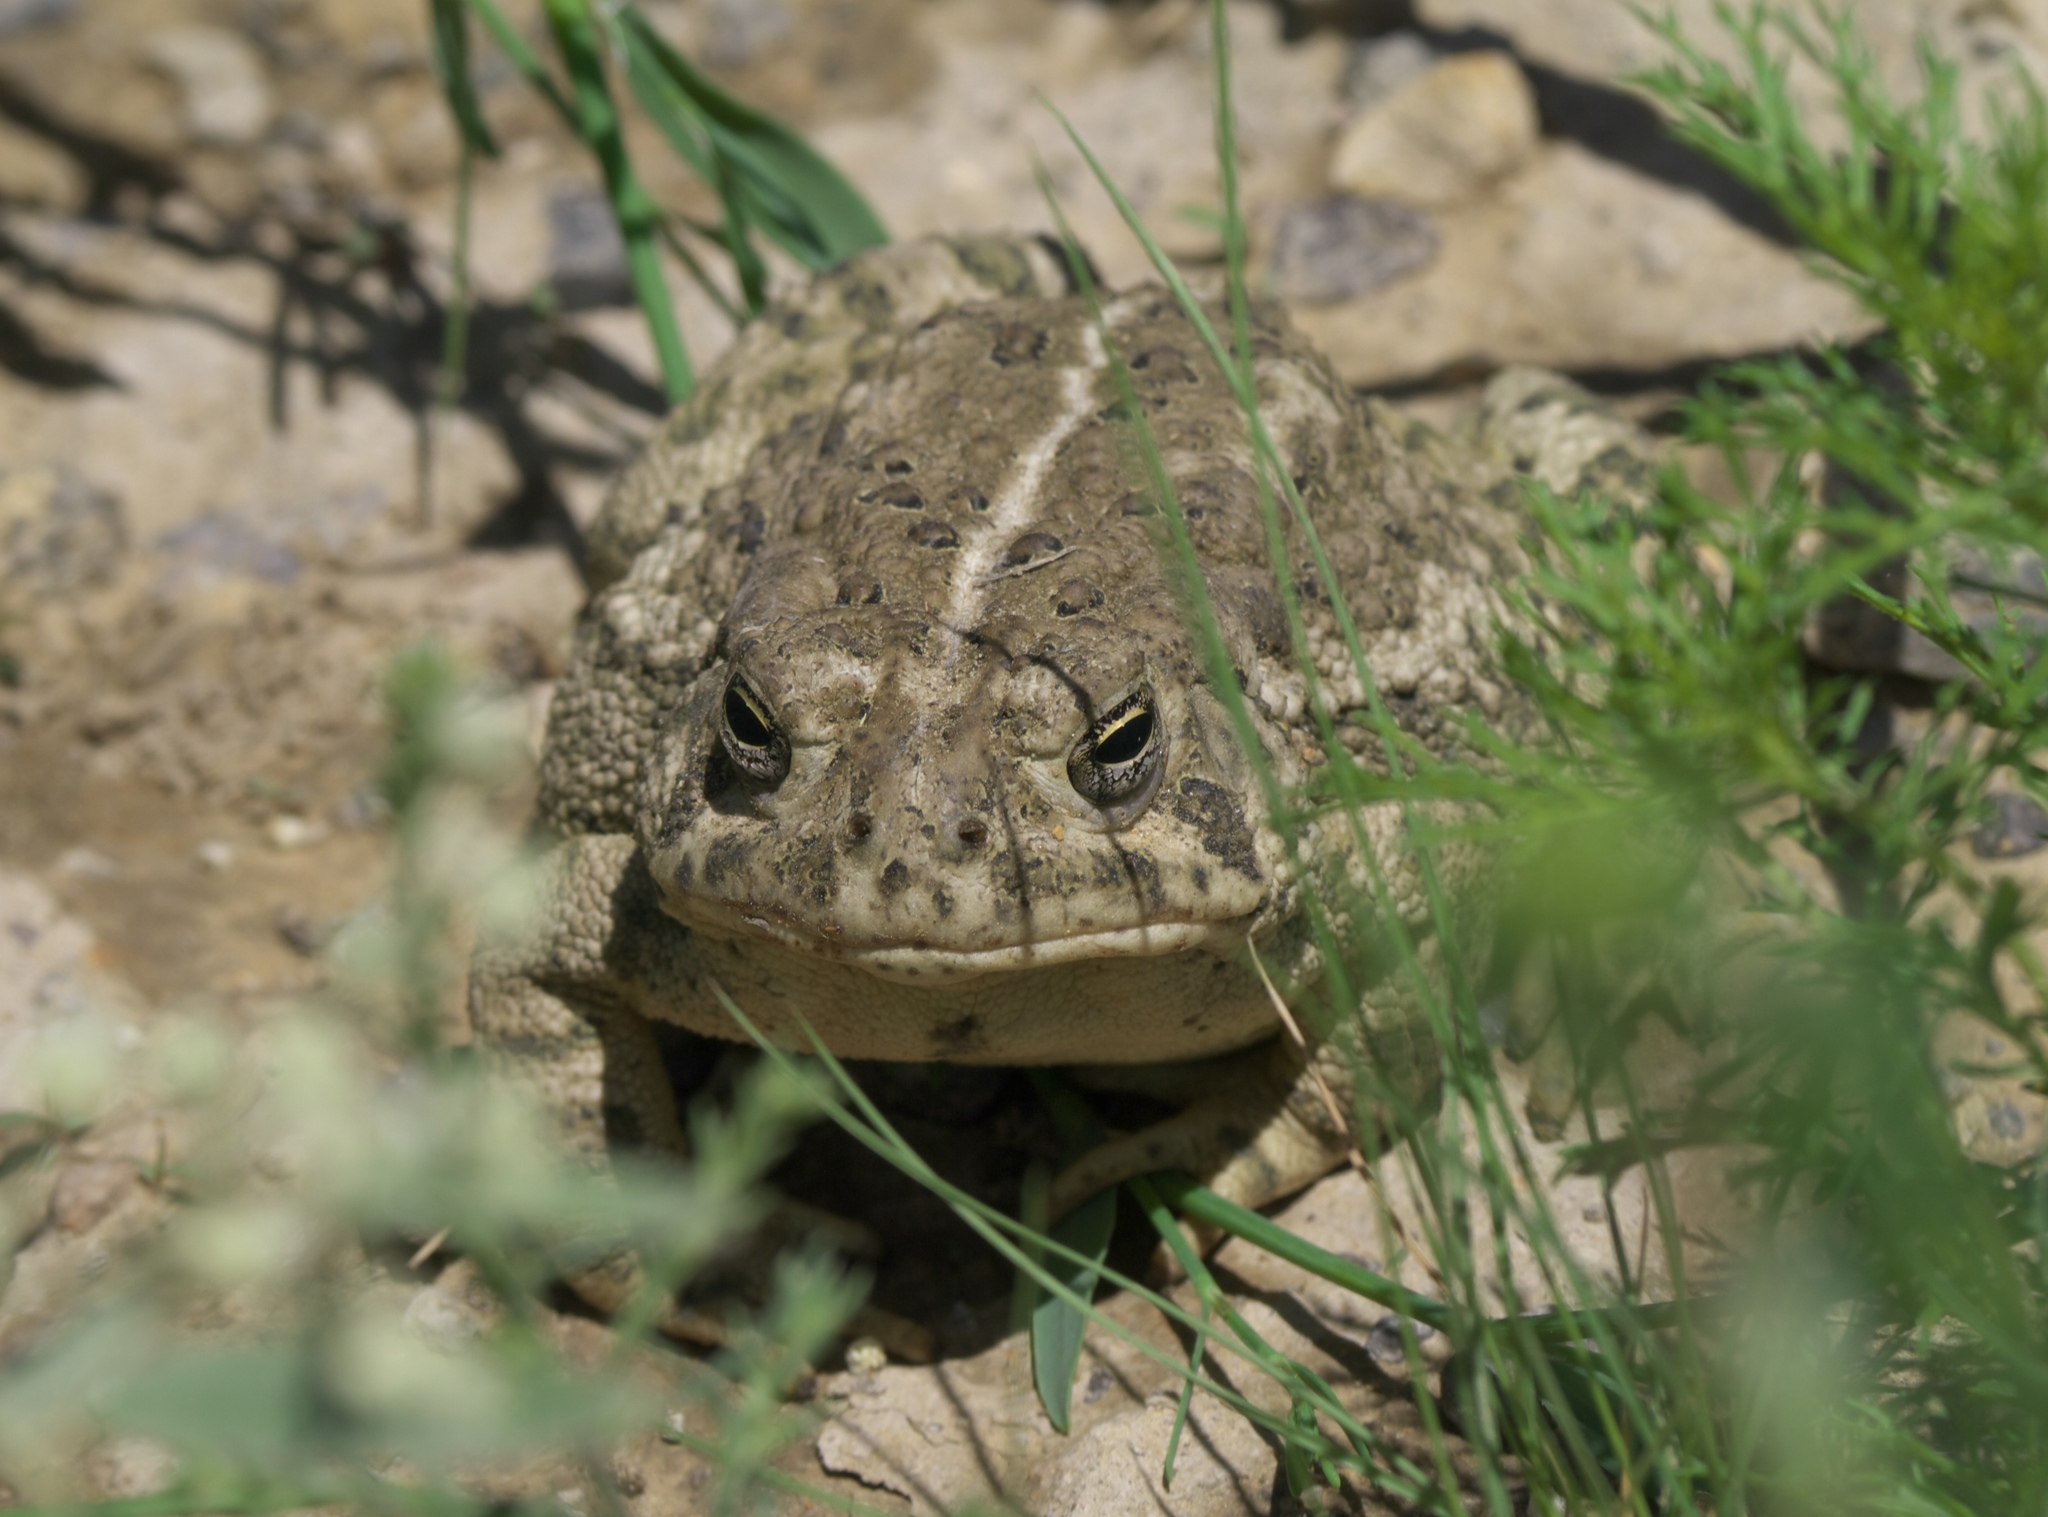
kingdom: Animalia
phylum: Chordata
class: Amphibia
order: Anura
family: Bufonidae
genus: Anaxyrus
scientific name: Anaxyrus woodhousii
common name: Woodhouse's toad
